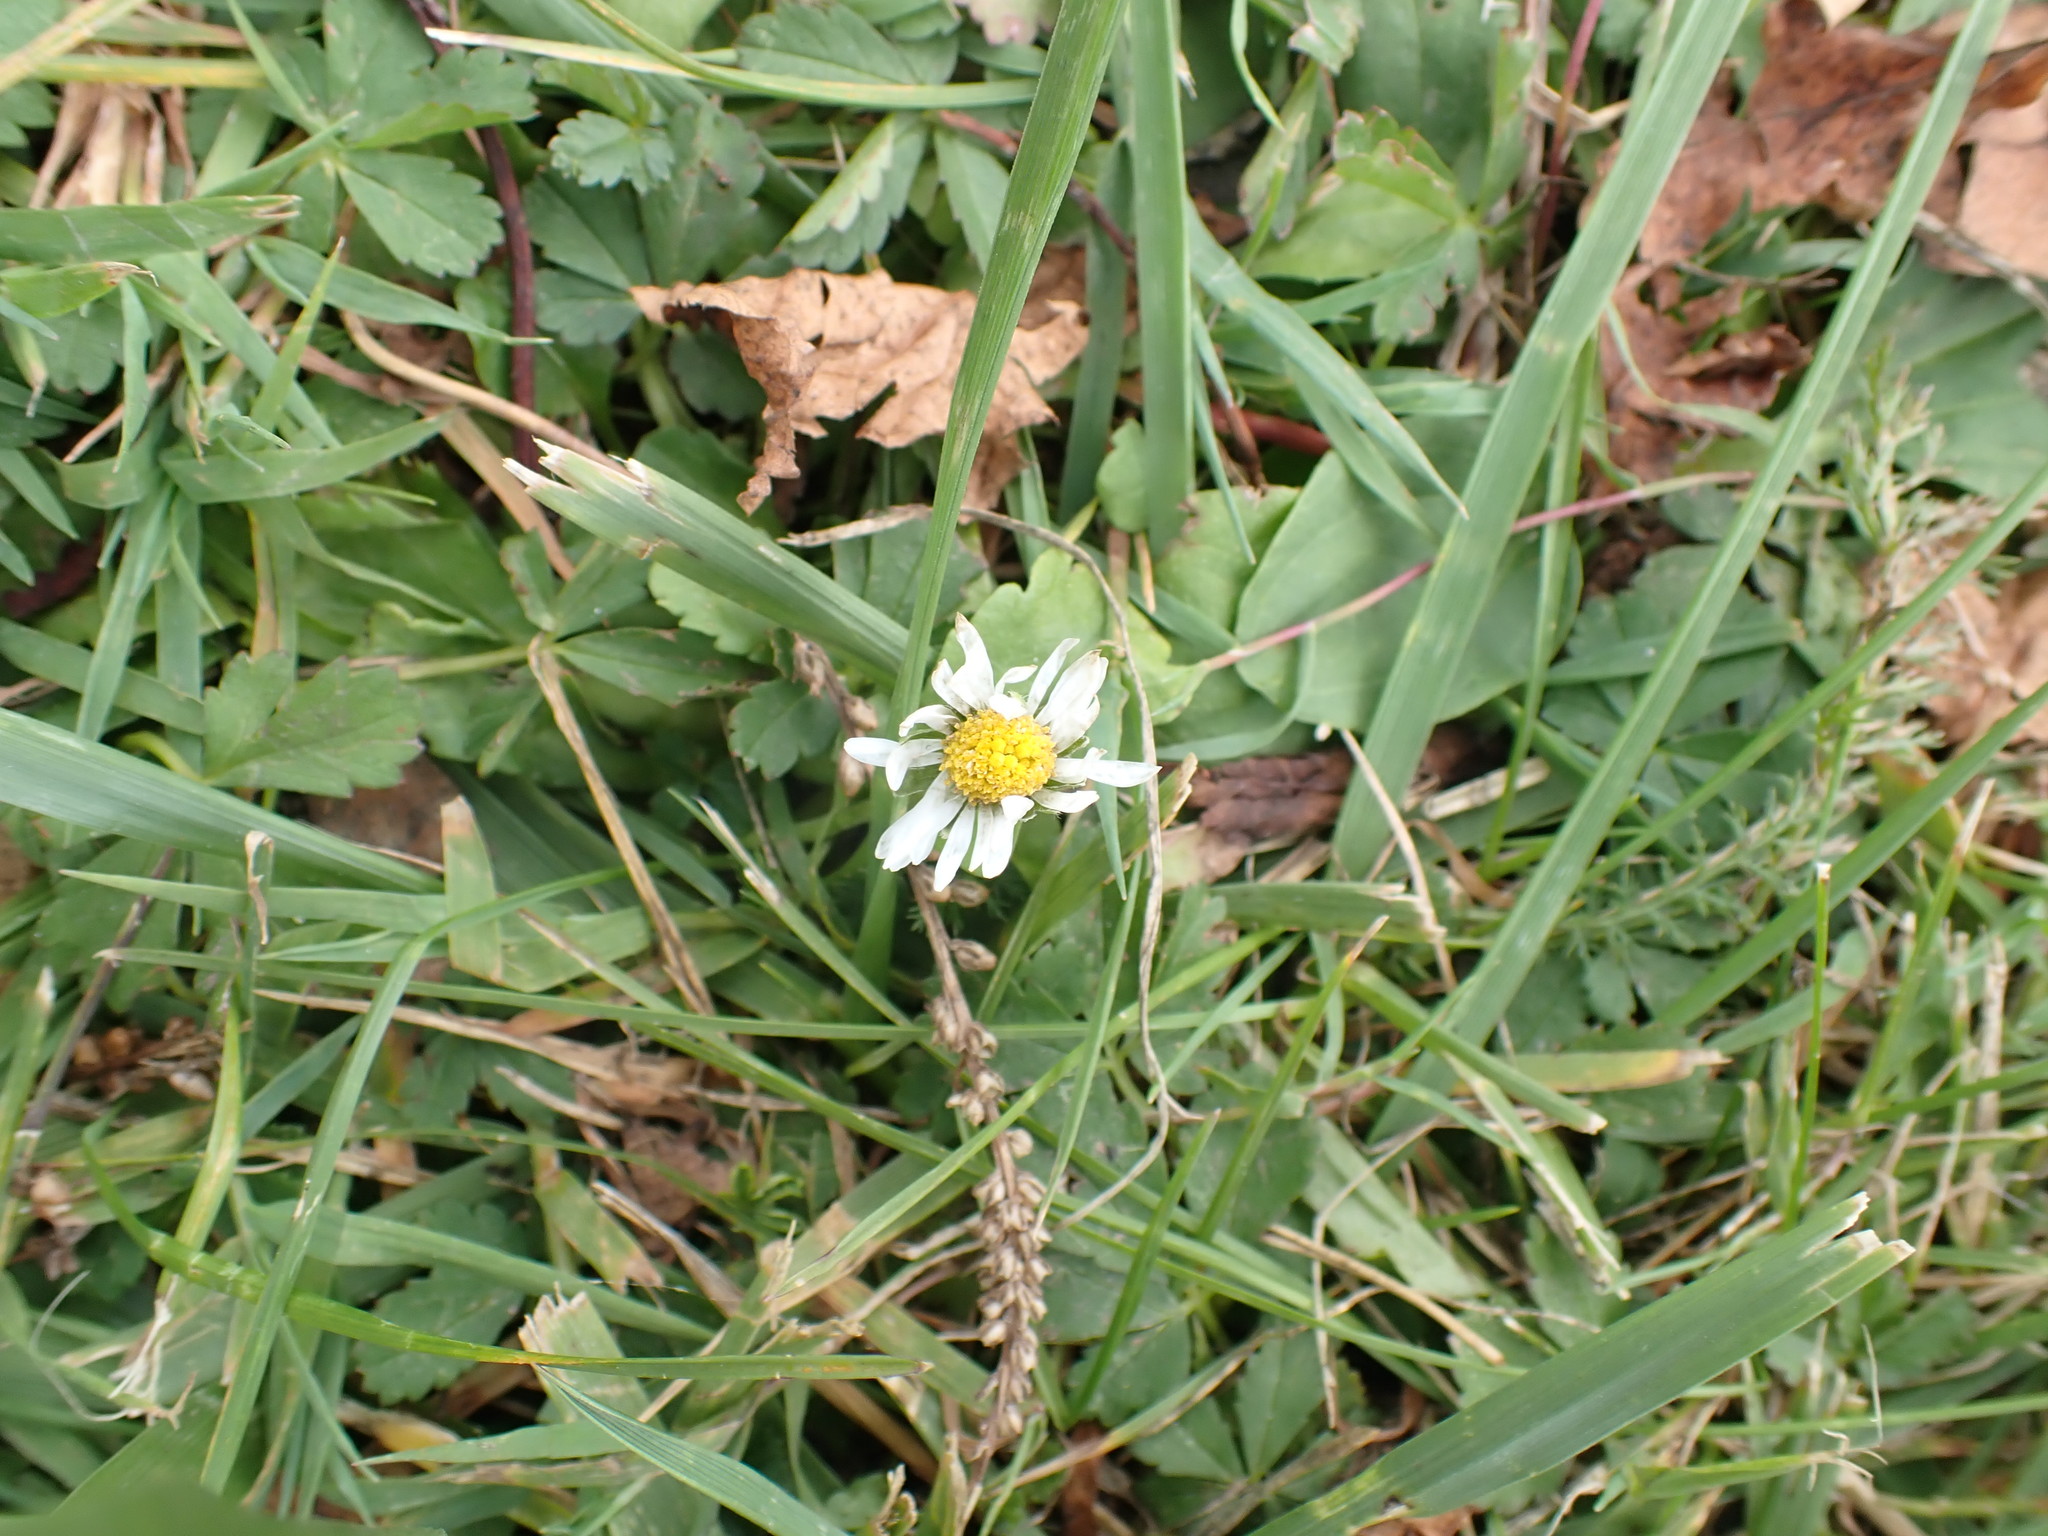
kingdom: Plantae
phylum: Tracheophyta
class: Magnoliopsida
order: Asterales
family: Asteraceae
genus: Bellis
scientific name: Bellis perennis
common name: Lawndaisy
